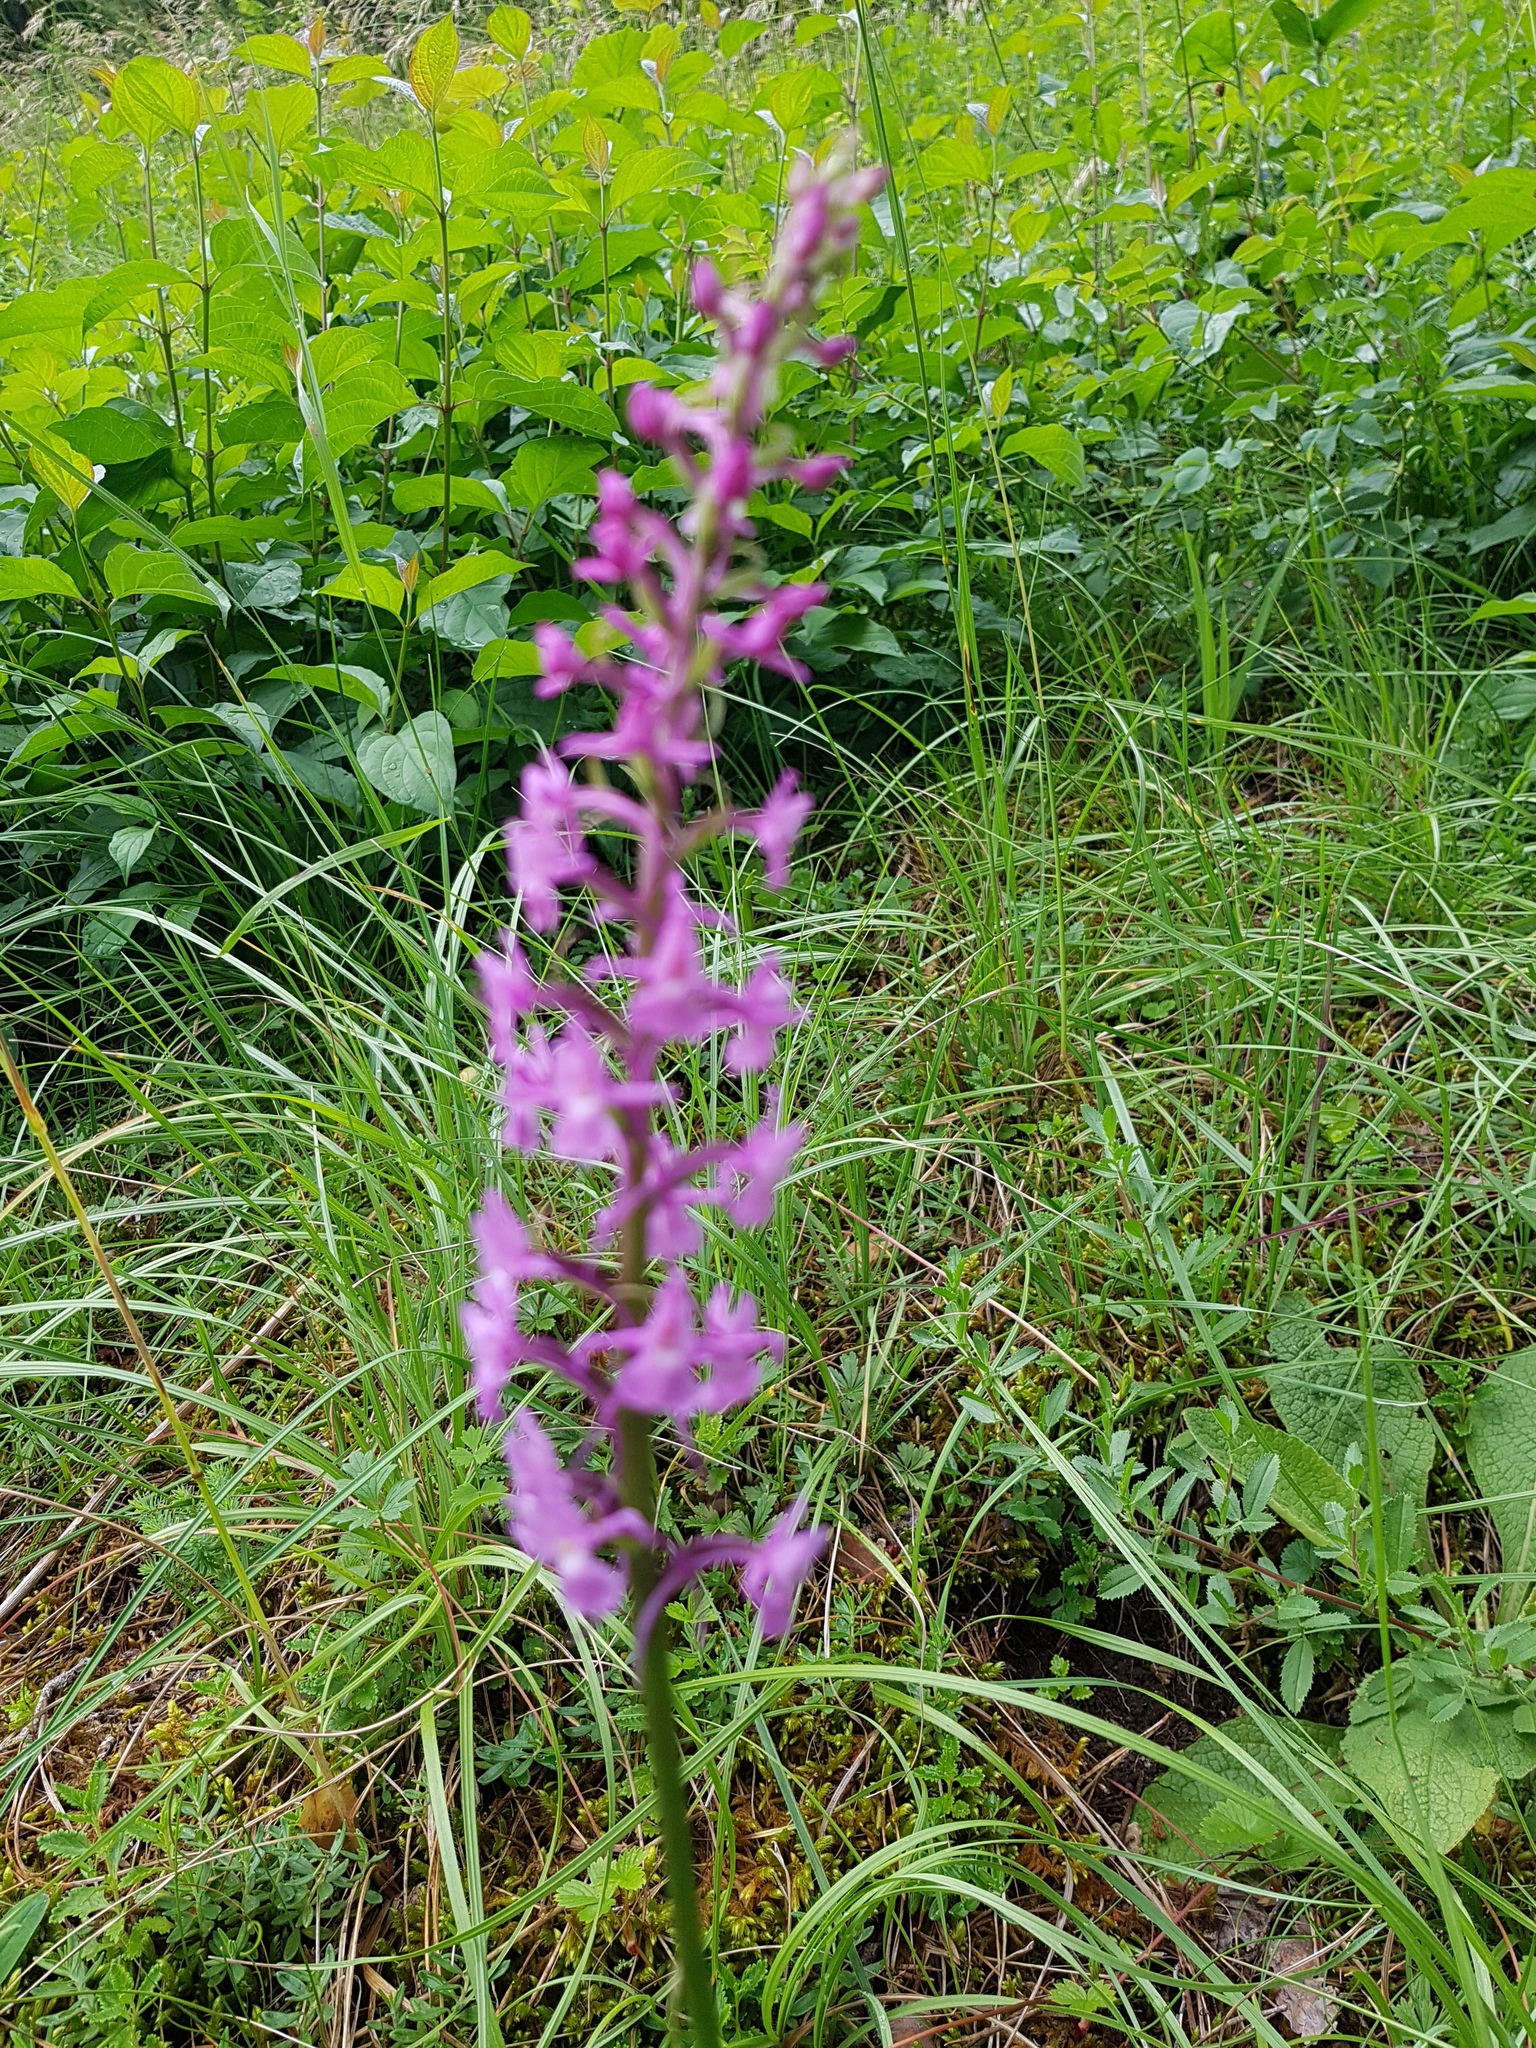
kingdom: Plantae
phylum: Tracheophyta
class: Liliopsida
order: Asparagales
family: Orchidaceae
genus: Gymnadenia
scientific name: Gymnadenia conopsea
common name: Fragrant orchid
